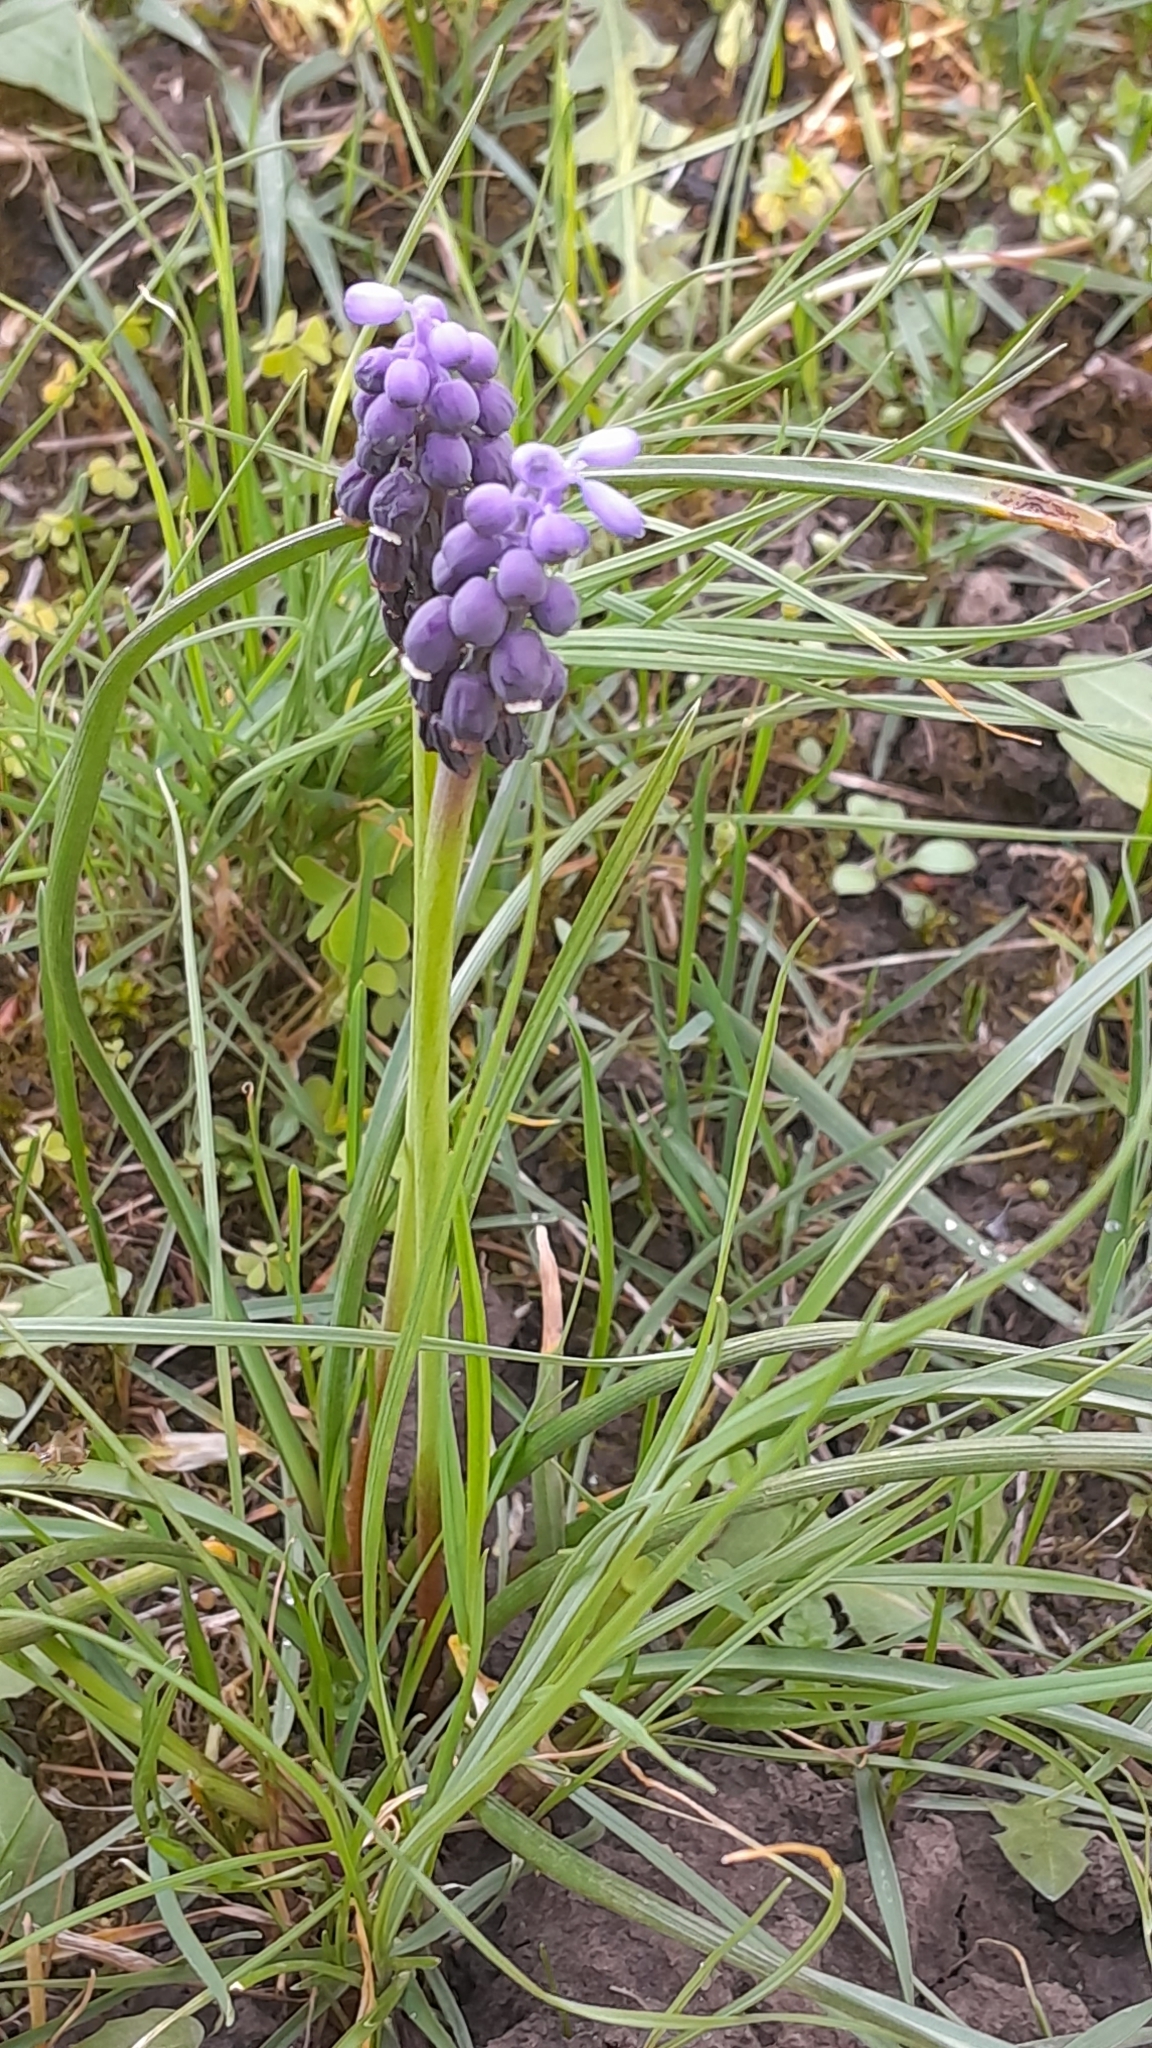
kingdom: Plantae
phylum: Tracheophyta
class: Liliopsida
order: Asparagales
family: Asparagaceae
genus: Muscari
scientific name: Muscari neglectum
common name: Grape-hyacinth
